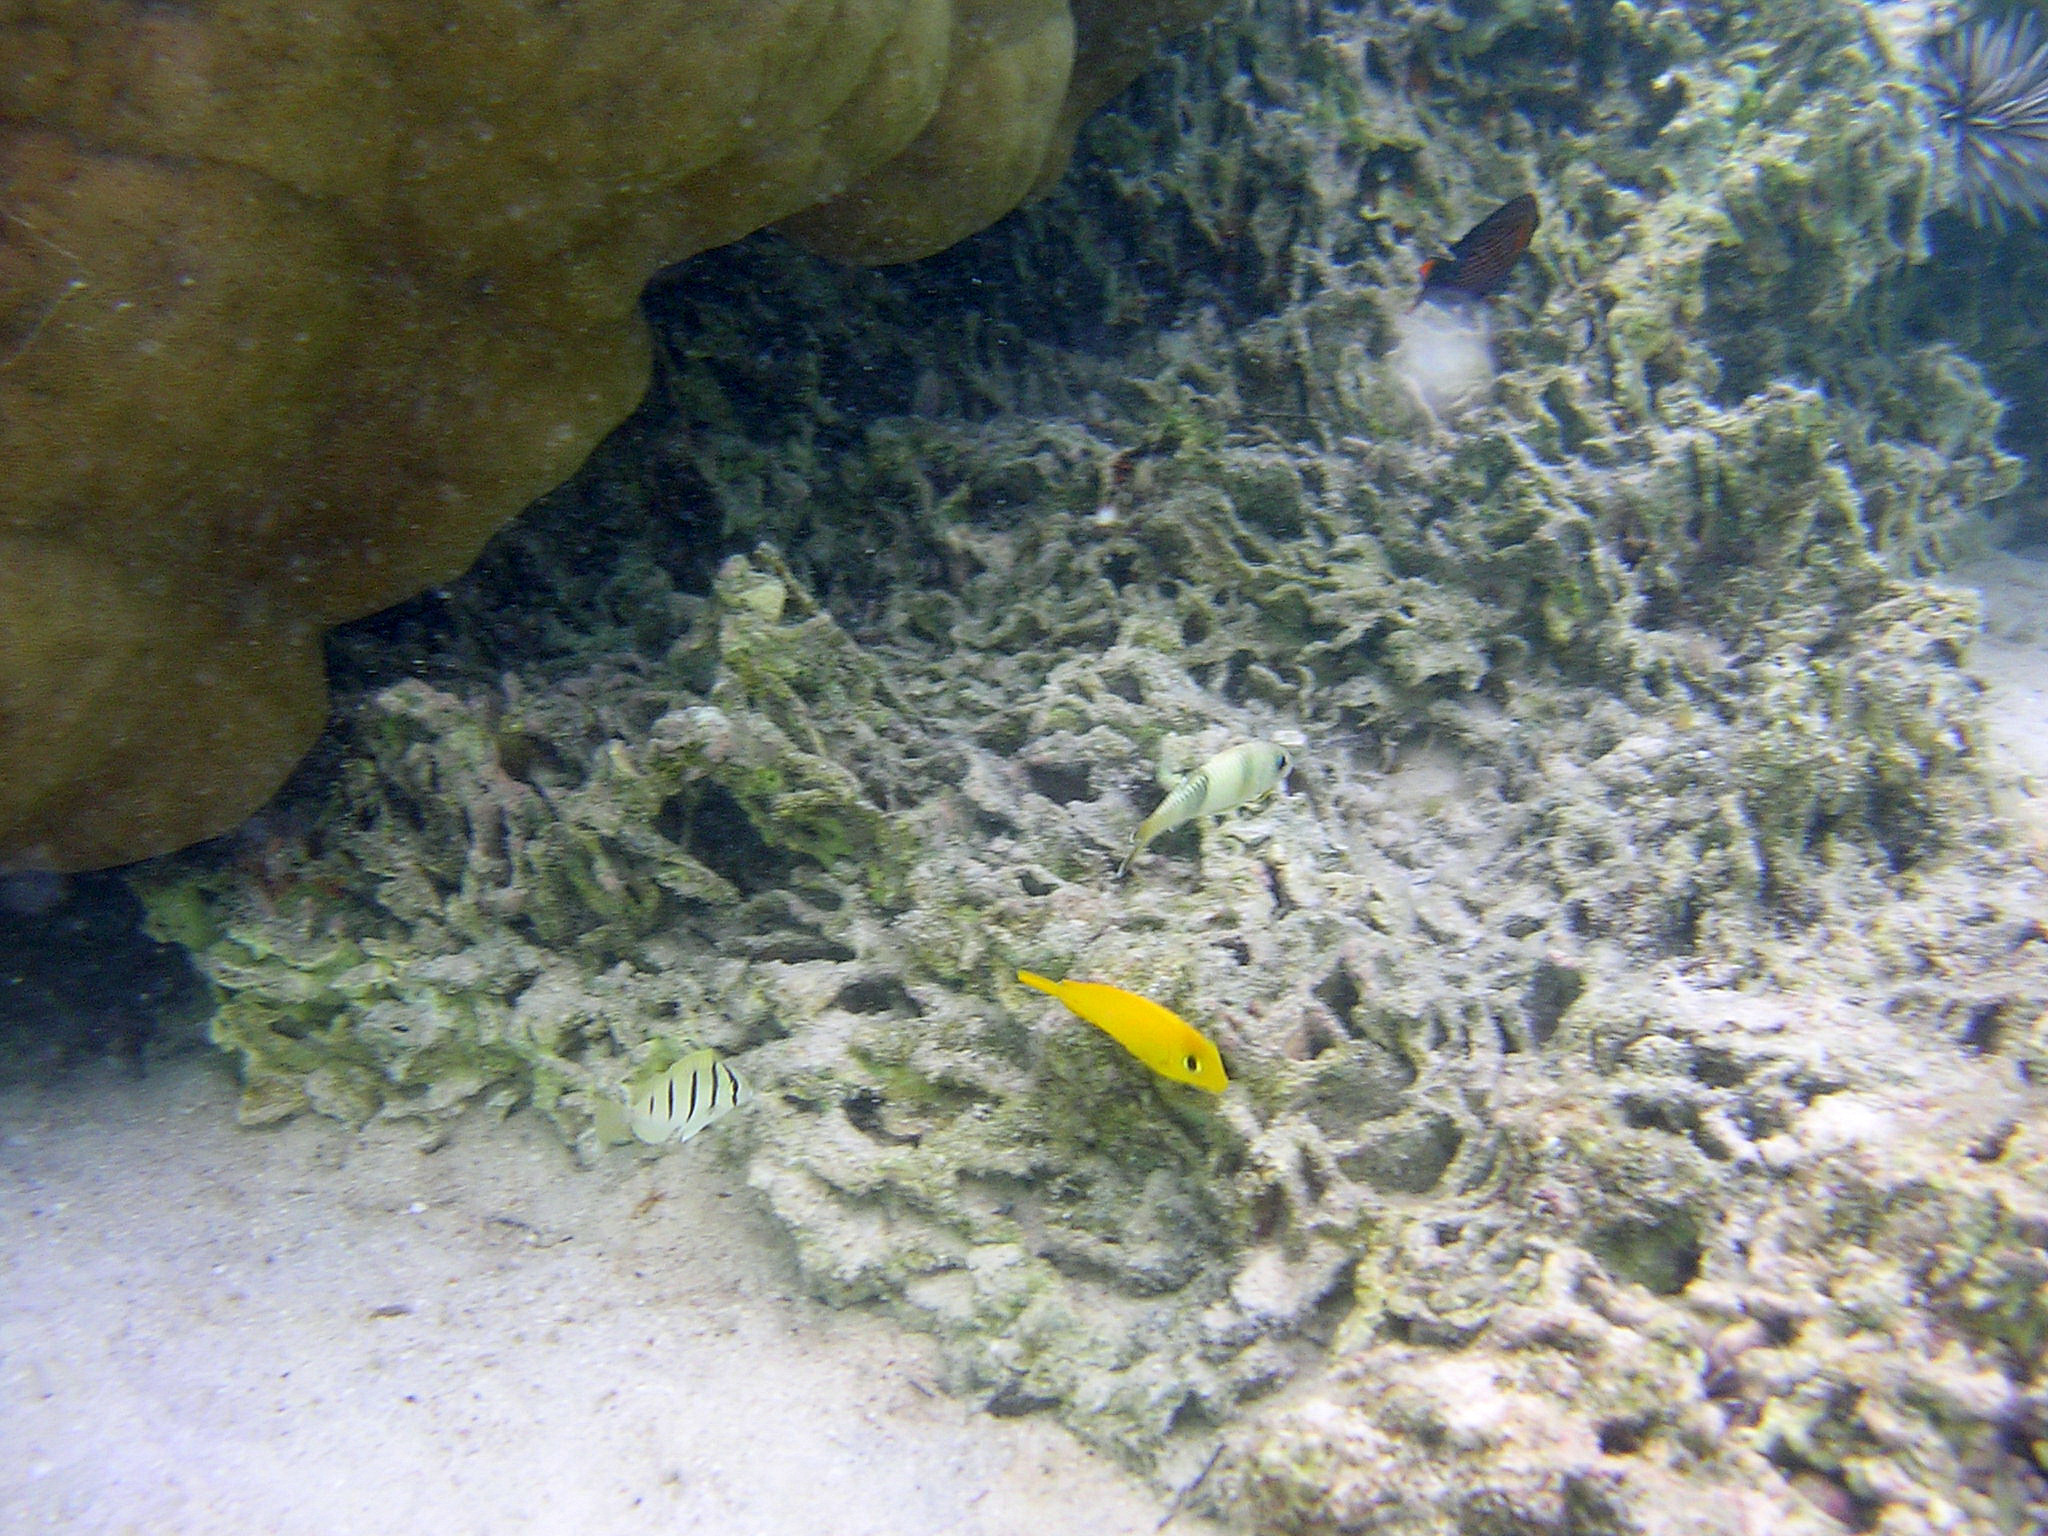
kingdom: Animalia
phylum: Chordata
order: Perciformes
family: Acanthuridae
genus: Ctenochaetus
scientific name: Ctenochaetus striatus
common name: Bristle-toothed surgeonfish
